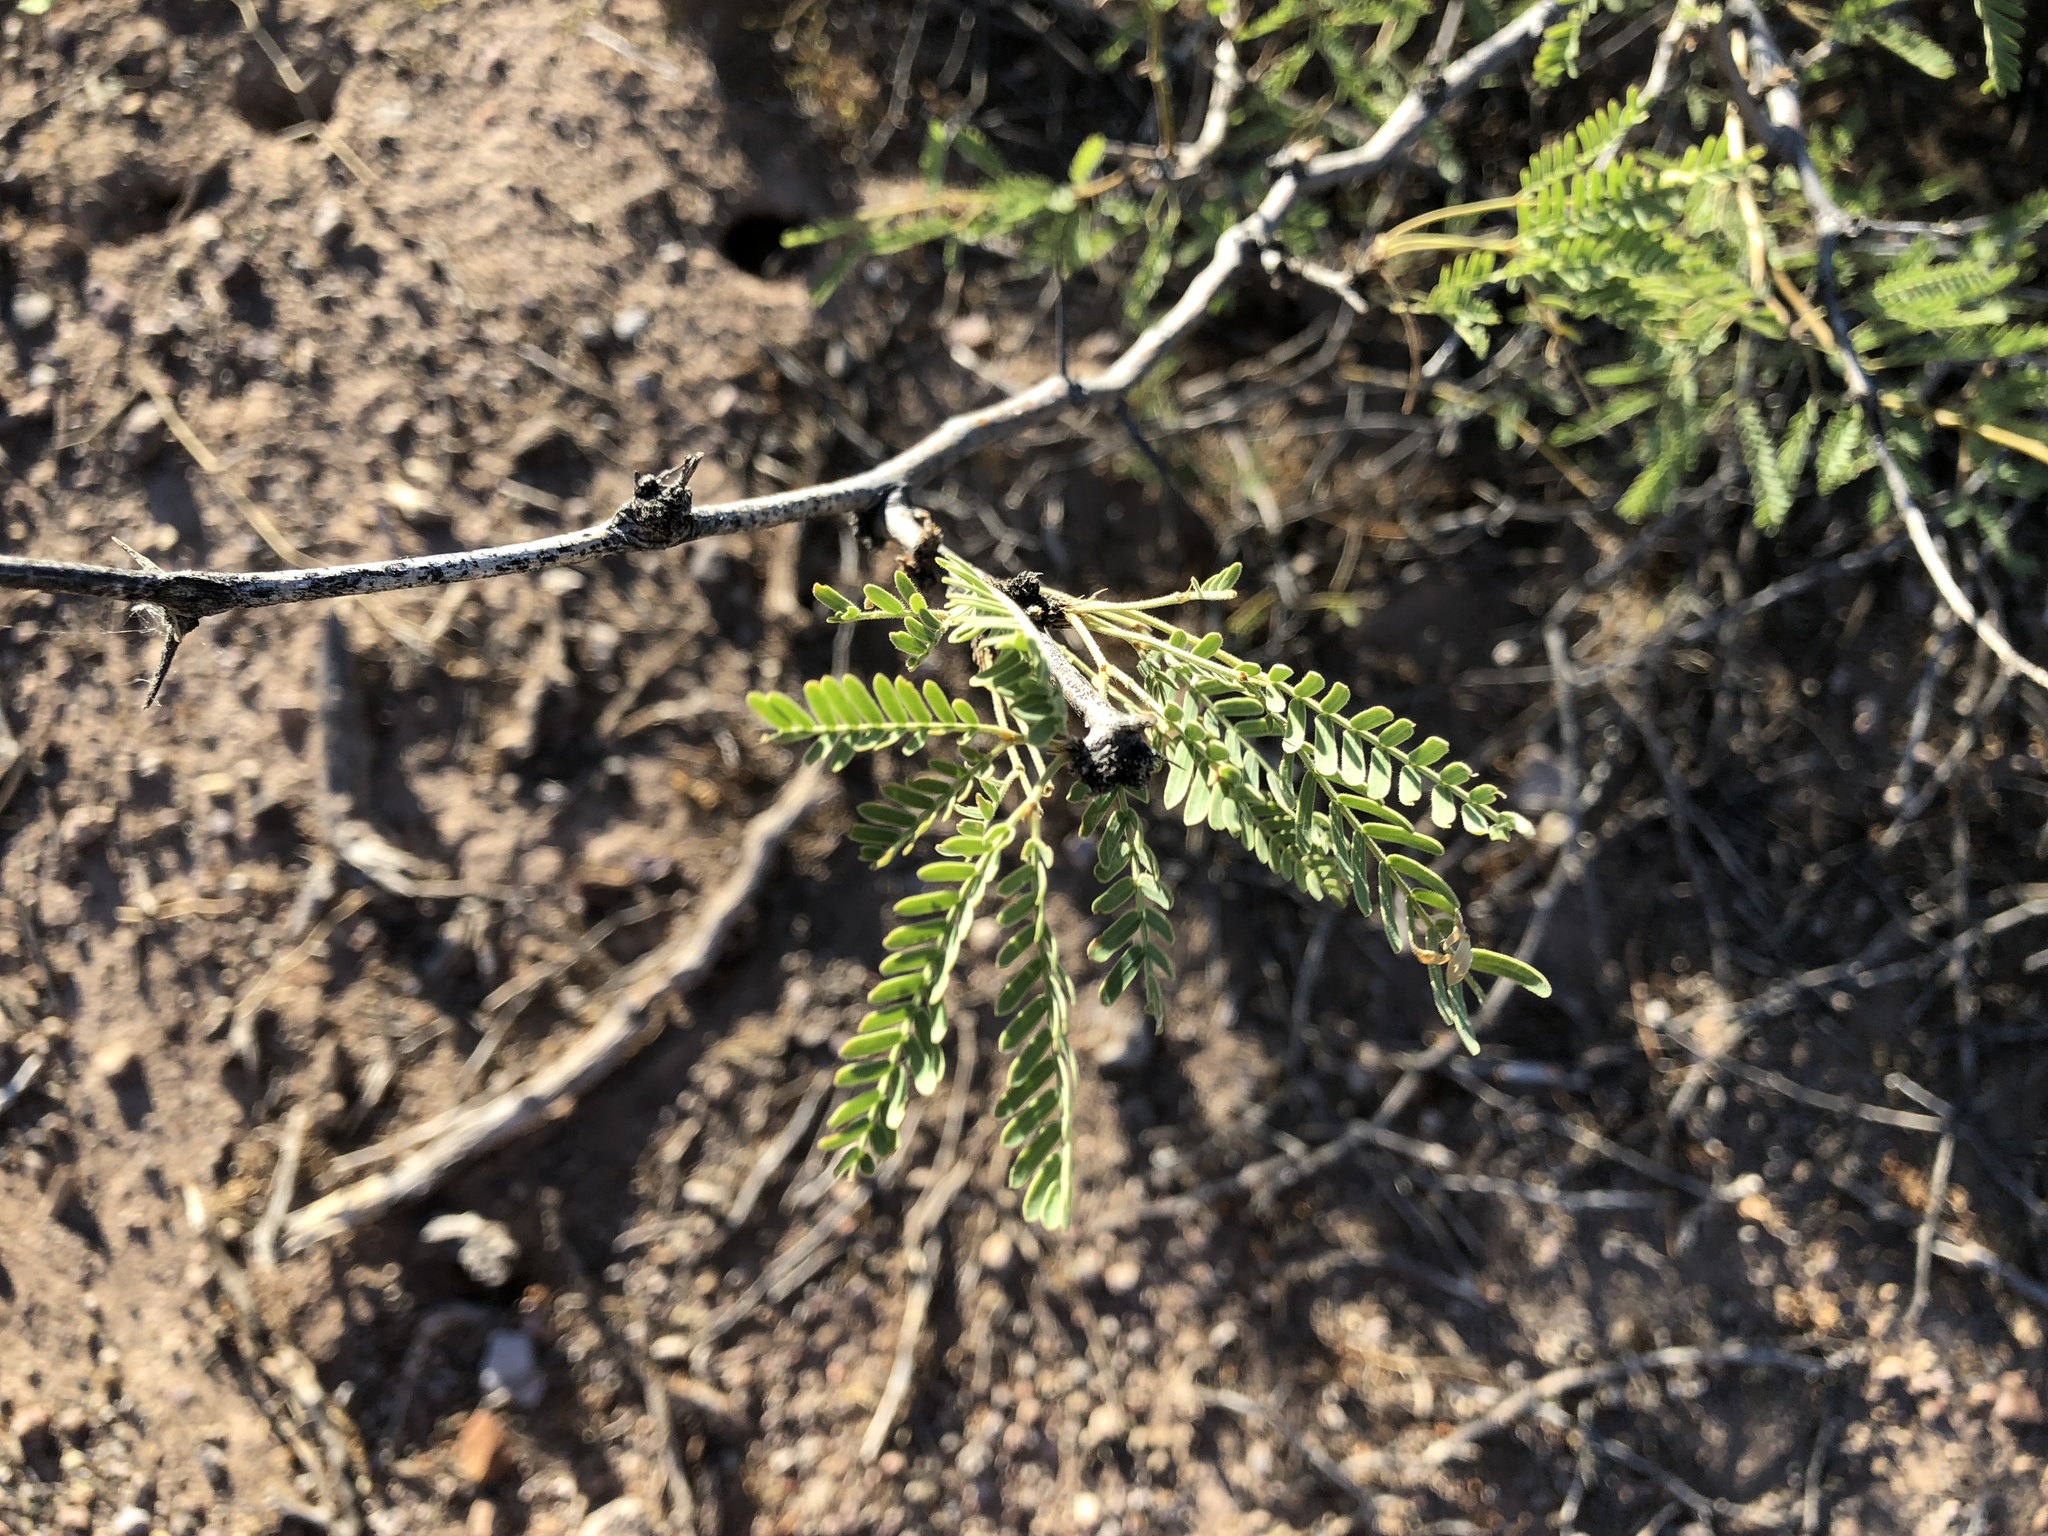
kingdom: Plantae
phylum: Tracheophyta
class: Magnoliopsida
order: Fabales
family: Fabaceae
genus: Prosopis
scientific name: Prosopis velutina
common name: Velvet mesquite
